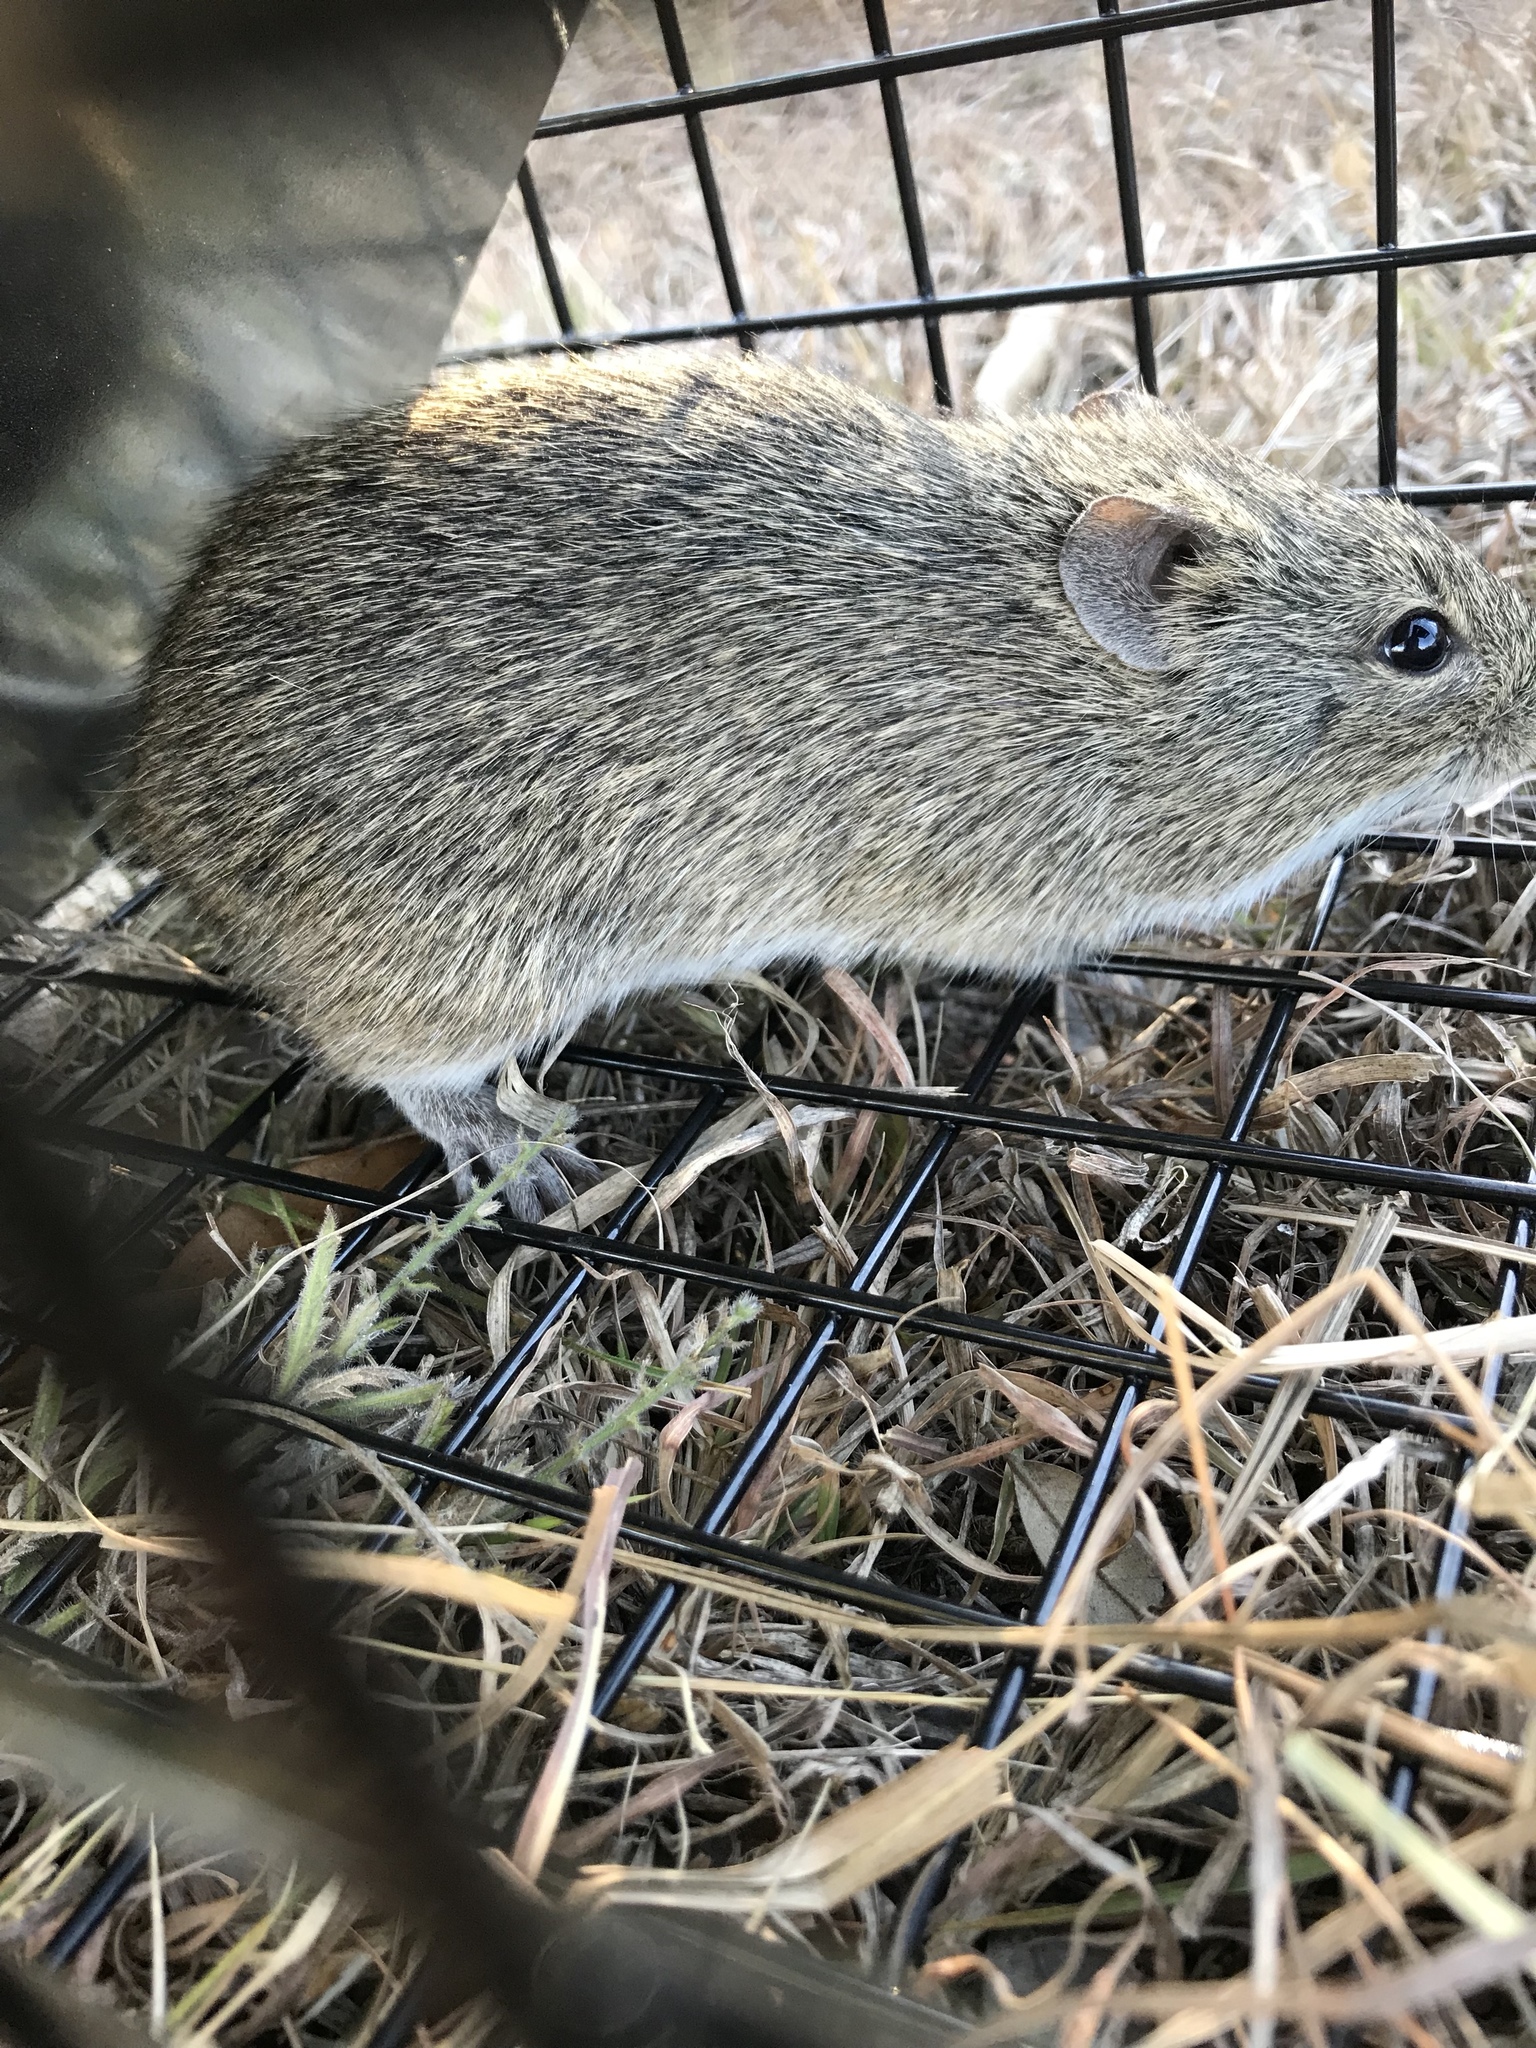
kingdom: Animalia
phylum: Chordata
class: Mammalia
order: Rodentia
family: Cricetidae
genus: Sigmodon
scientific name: Sigmodon hispidus
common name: Hispid cotton rat
